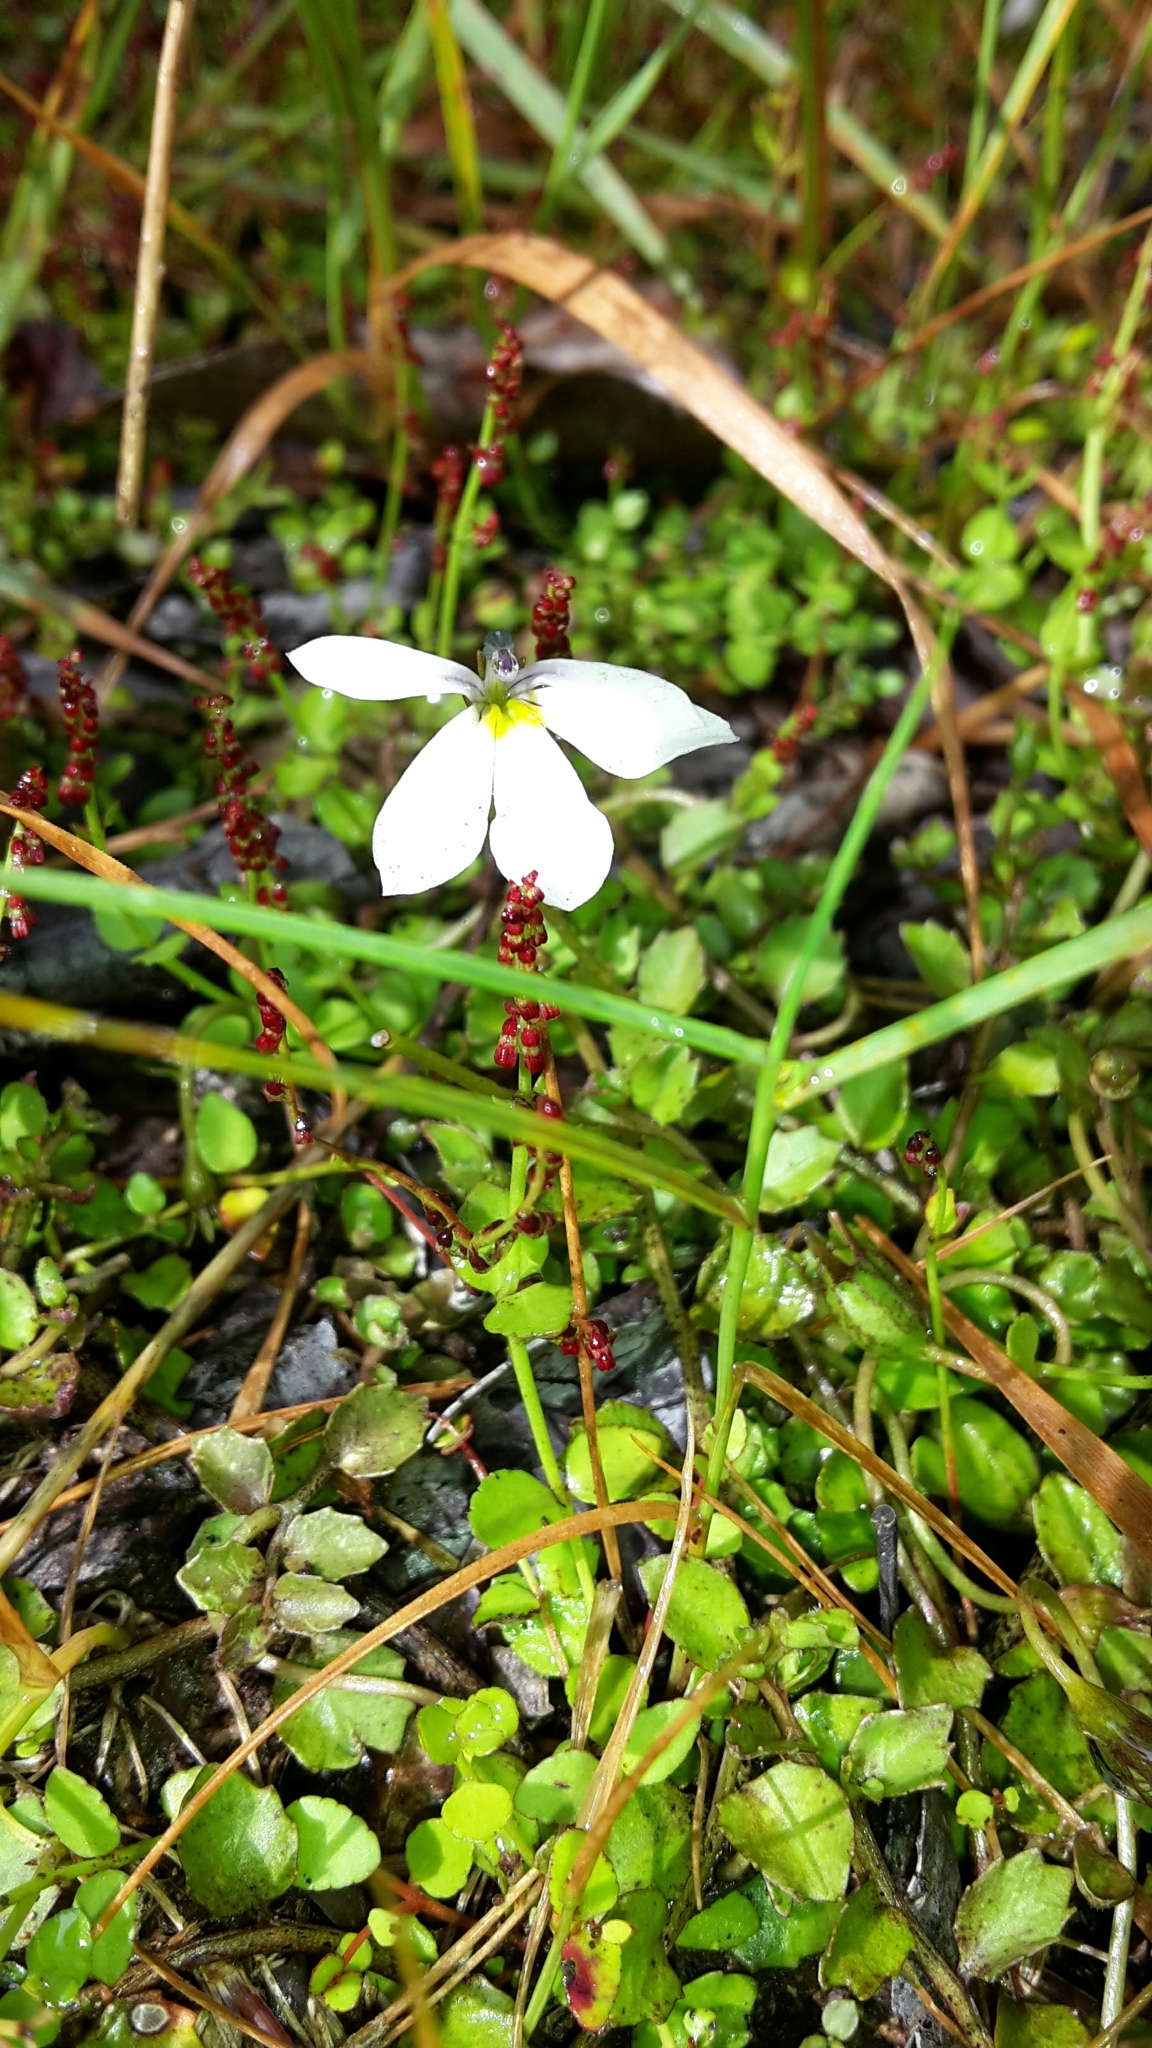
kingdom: Plantae
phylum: Tracheophyta
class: Magnoliopsida
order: Asterales
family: Campanulaceae
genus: Lobelia
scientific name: Lobelia angulata
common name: Lawn lobelia
